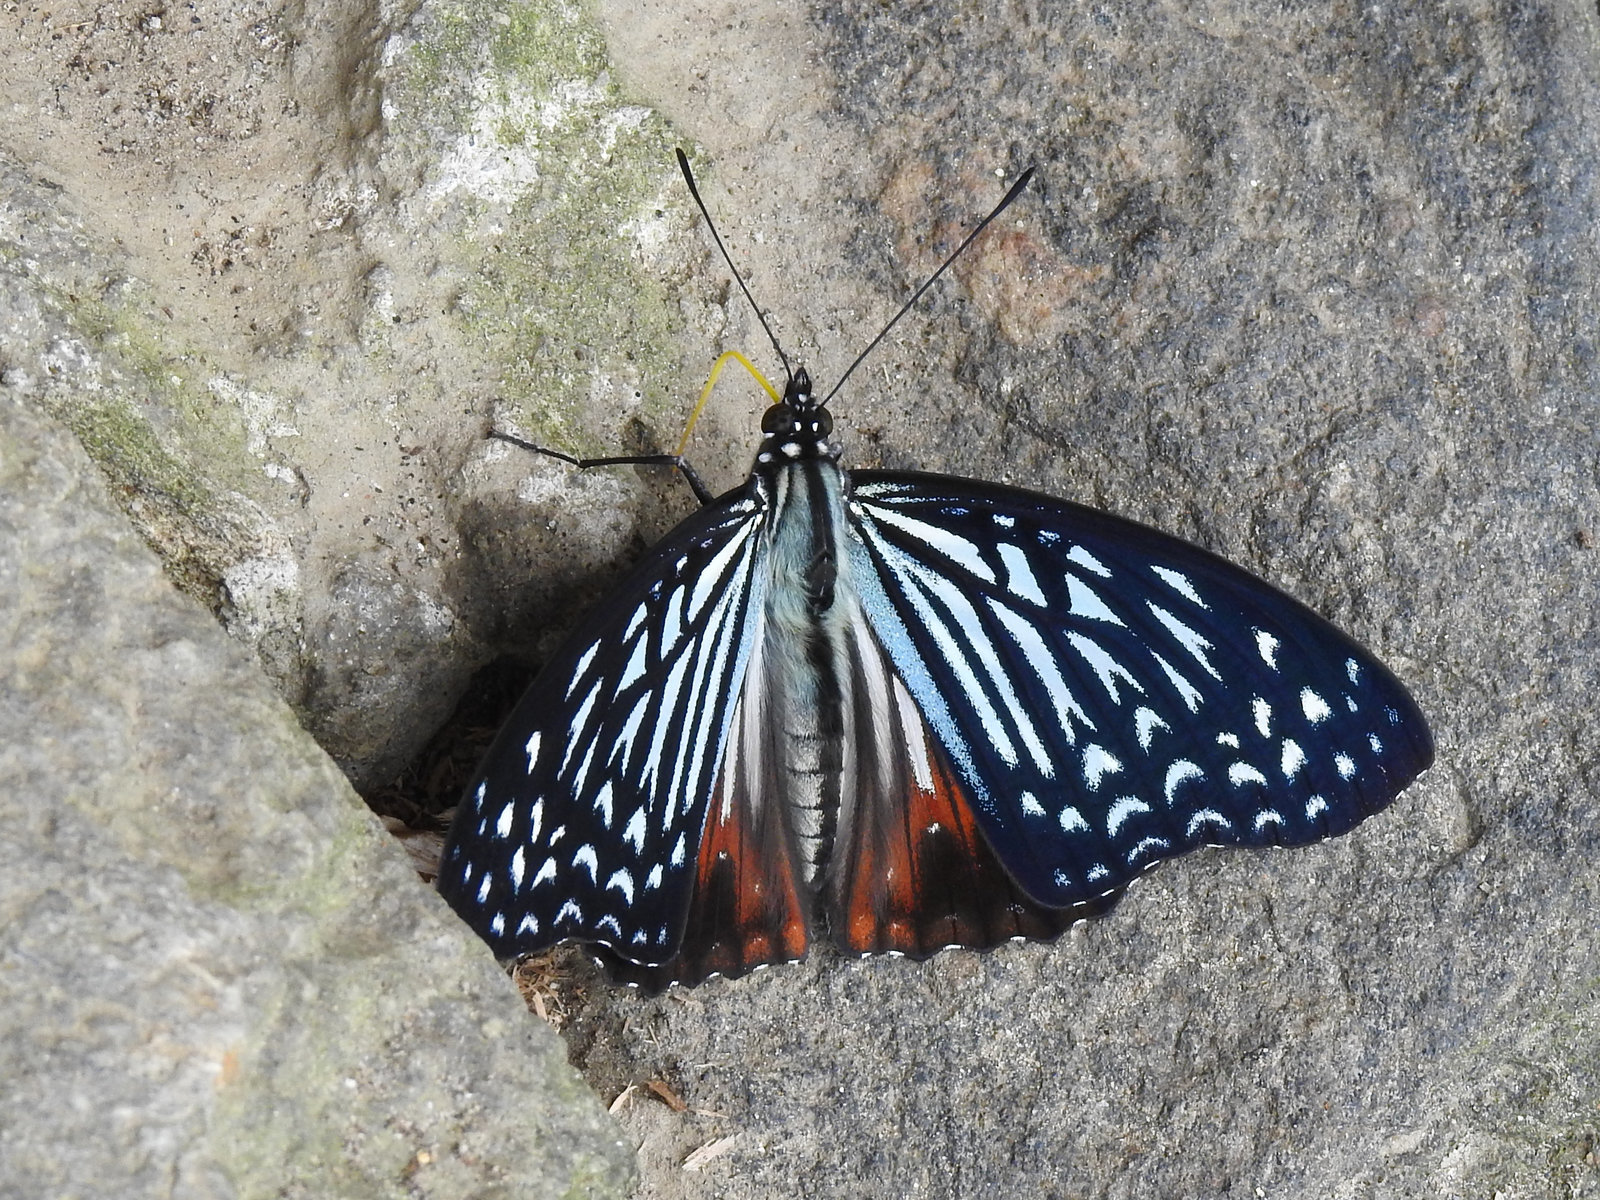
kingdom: Animalia
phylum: Arthropoda
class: Insecta
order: Lepidoptera
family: Nymphalidae
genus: Hestinalis
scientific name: Hestinalis nama
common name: Circe
